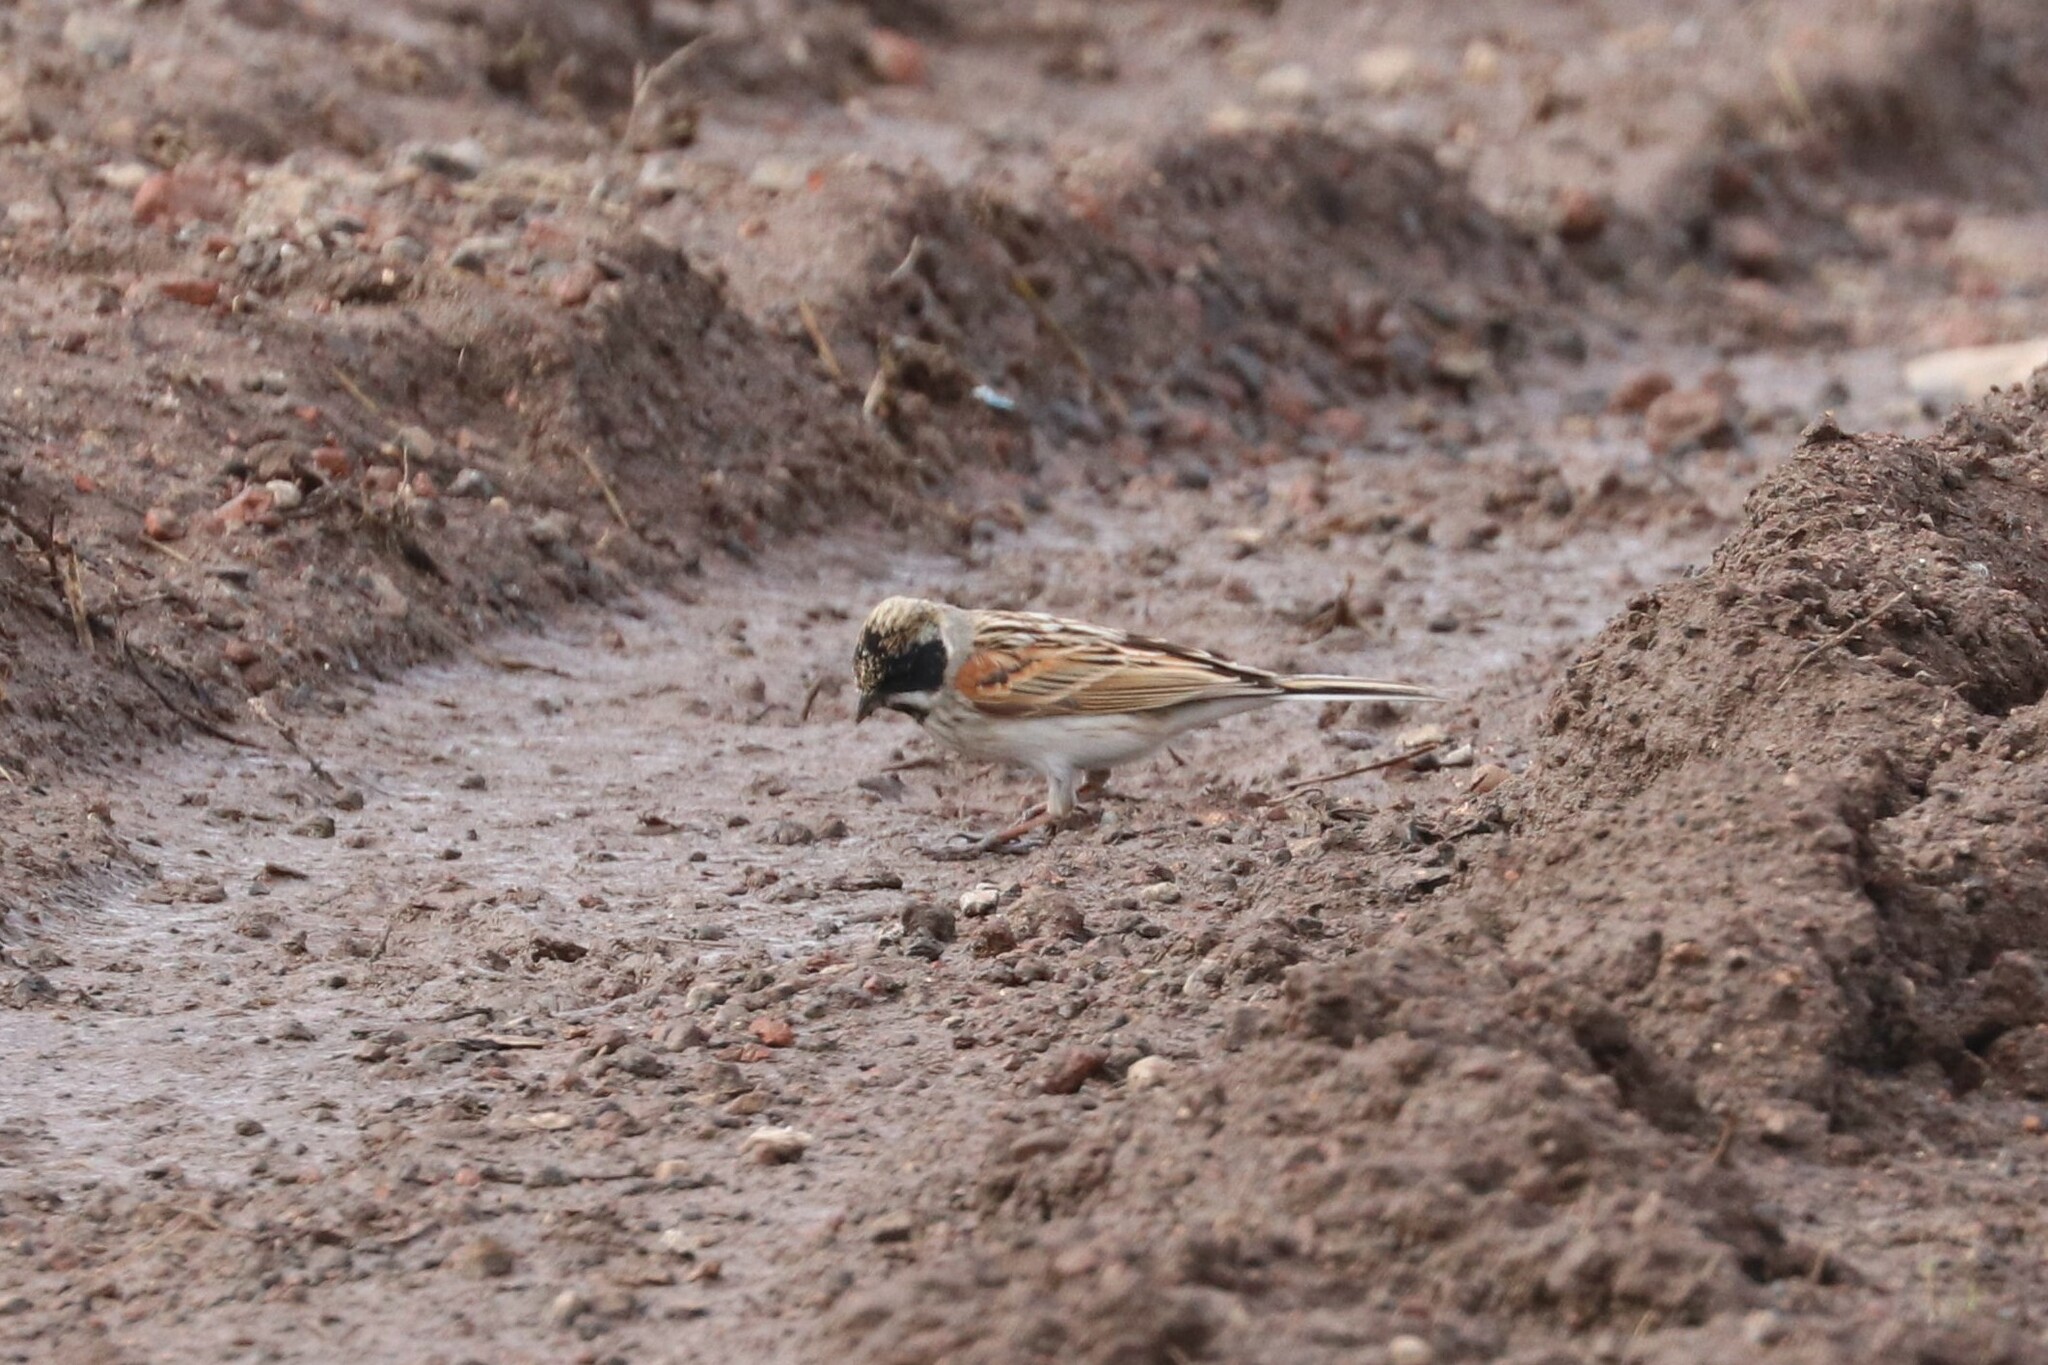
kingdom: Animalia
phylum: Chordata
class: Aves
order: Passeriformes
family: Emberizidae
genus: Emberiza
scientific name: Emberiza schoeniclus
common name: Reed bunting
